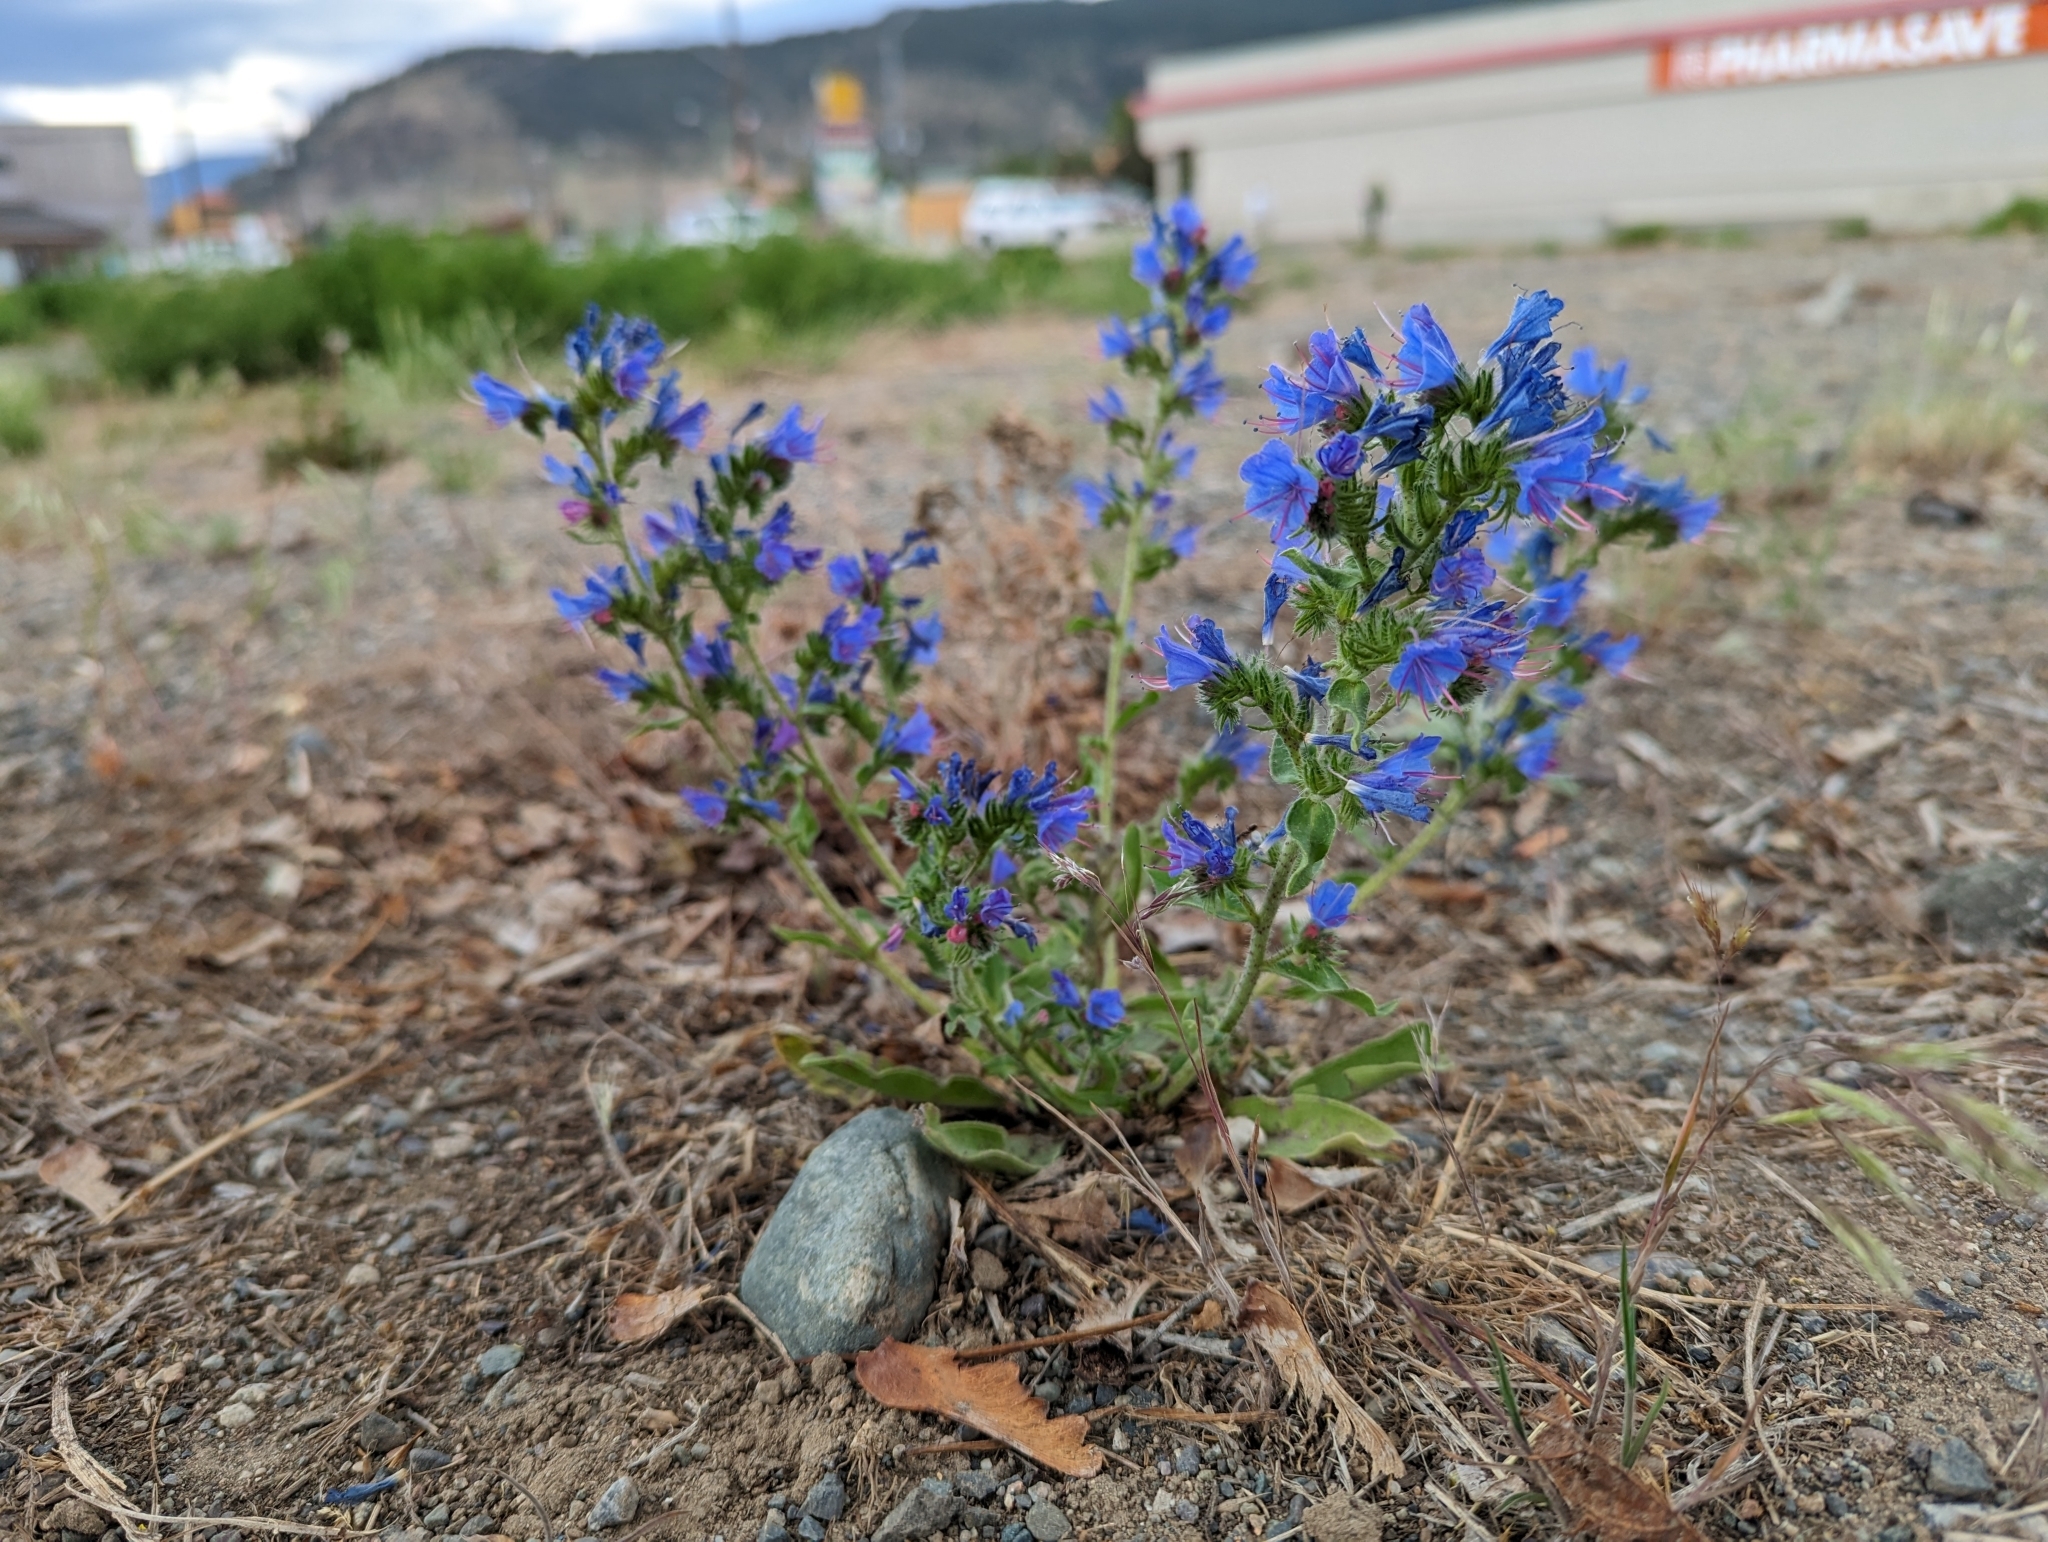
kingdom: Plantae
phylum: Tracheophyta
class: Magnoliopsida
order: Boraginales
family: Boraginaceae
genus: Echium
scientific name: Echium vulgare
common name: Common viper's bugloss
